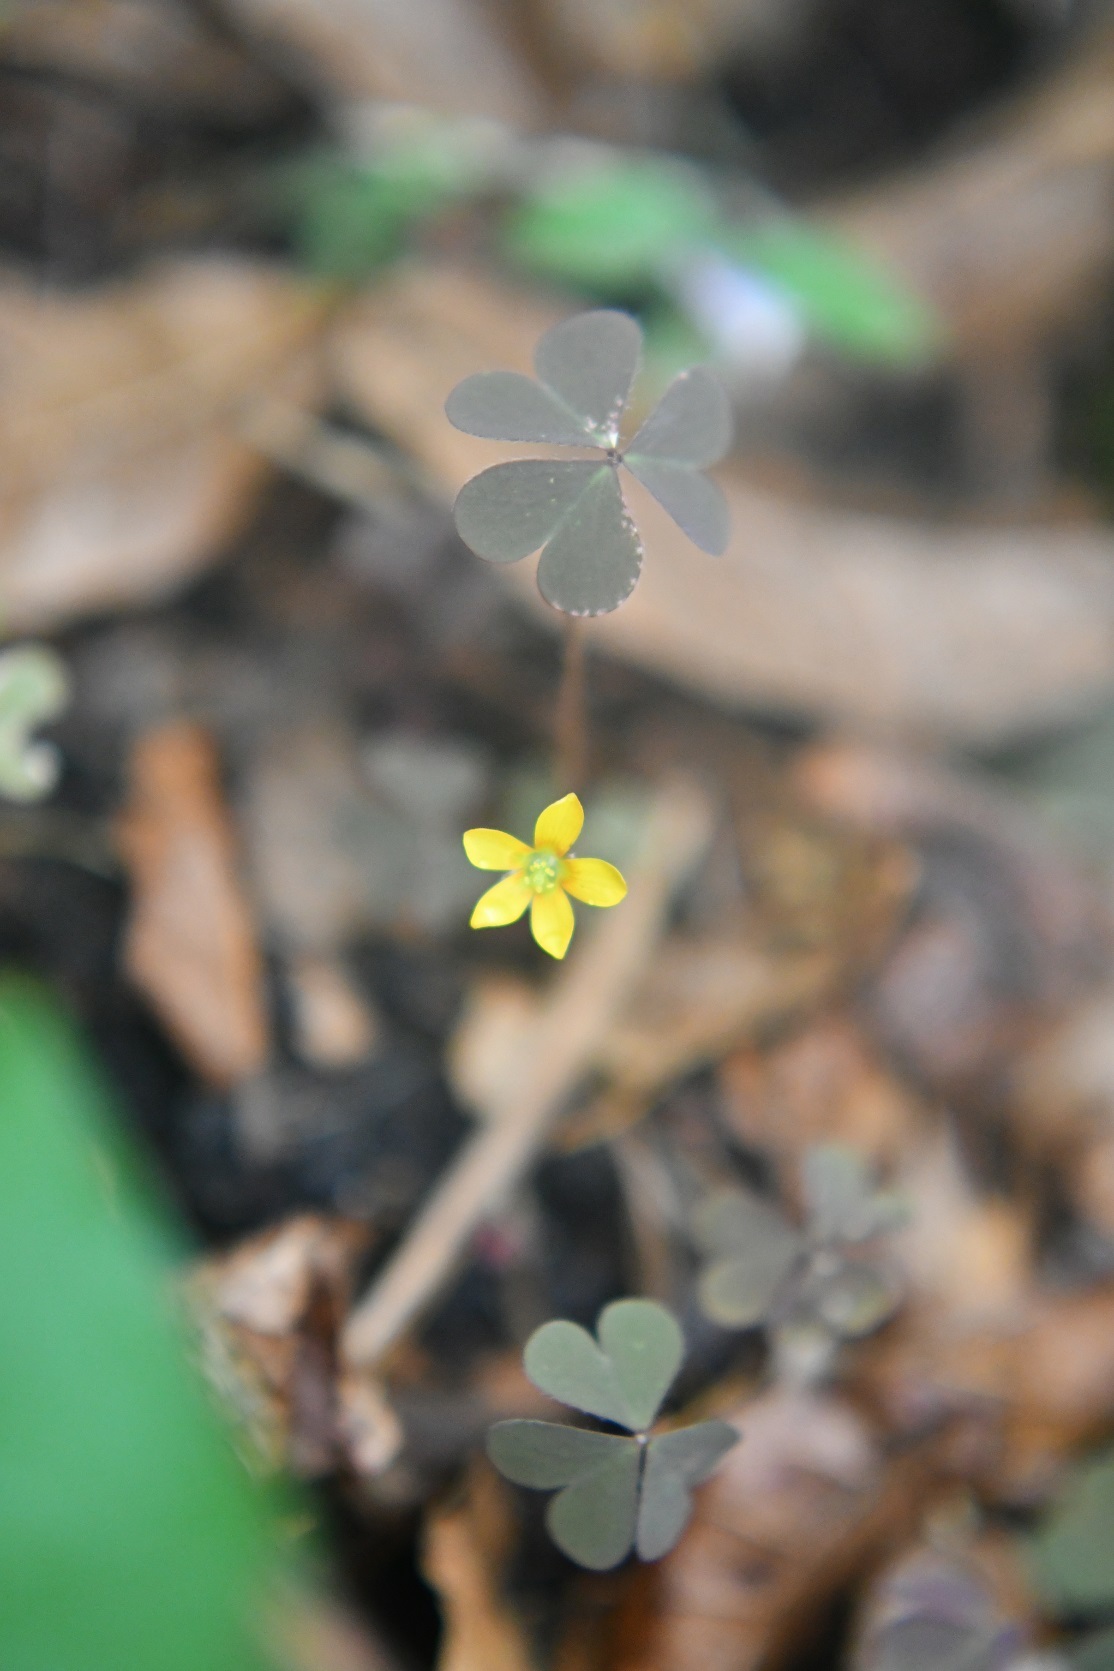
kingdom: Plantae
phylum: Tracheophyta
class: Magnoliopsida
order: Oxalidales
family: Oxalidaceae
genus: Oxalis
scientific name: Oxalis corniculata
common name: Procumbent yellow-sorrel
